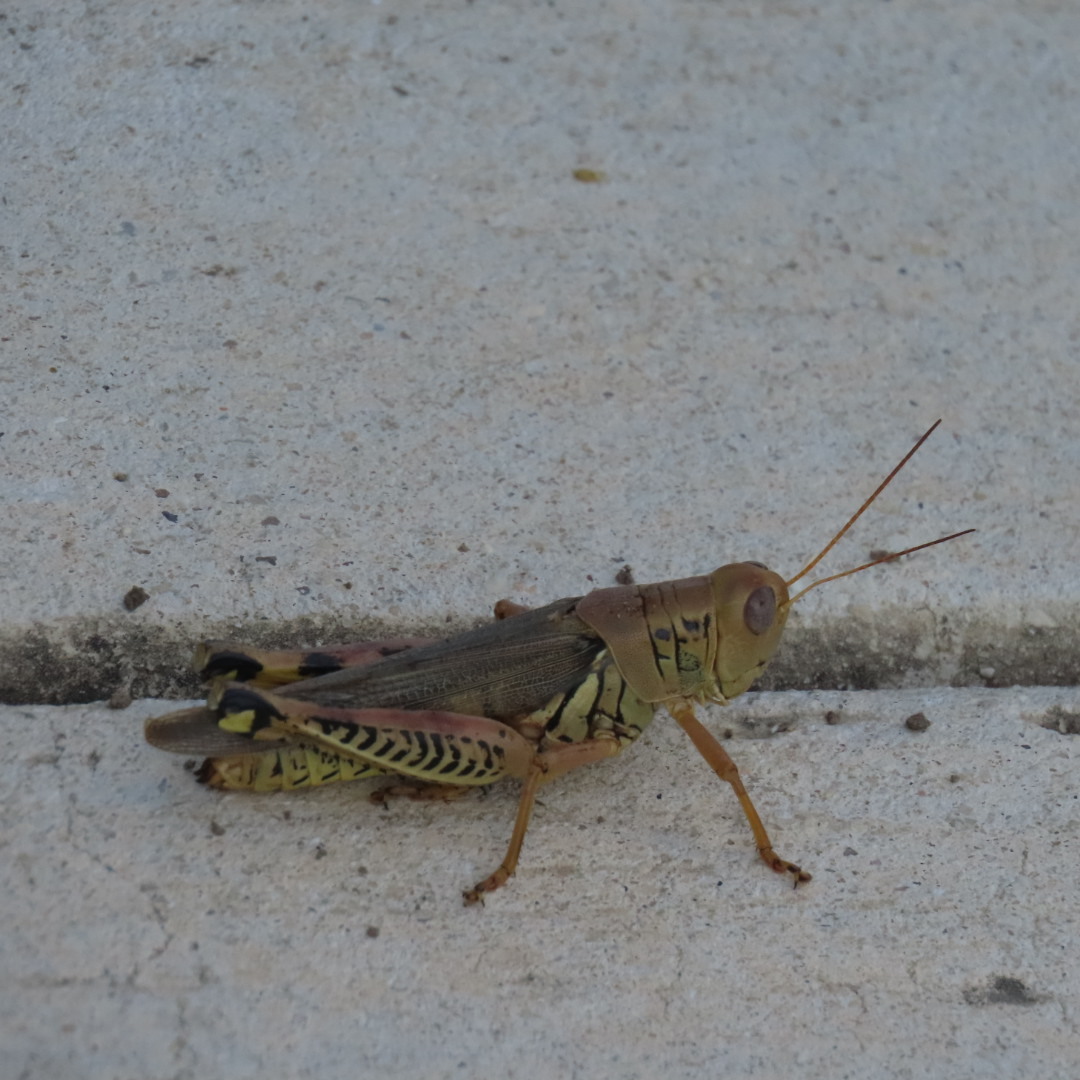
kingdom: Animalia
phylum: Arthropoda
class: Insecta
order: Orthoptera
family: Acrididae
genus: Melanoplus
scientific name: Melanoplus differentialis
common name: Differential grasshopper
